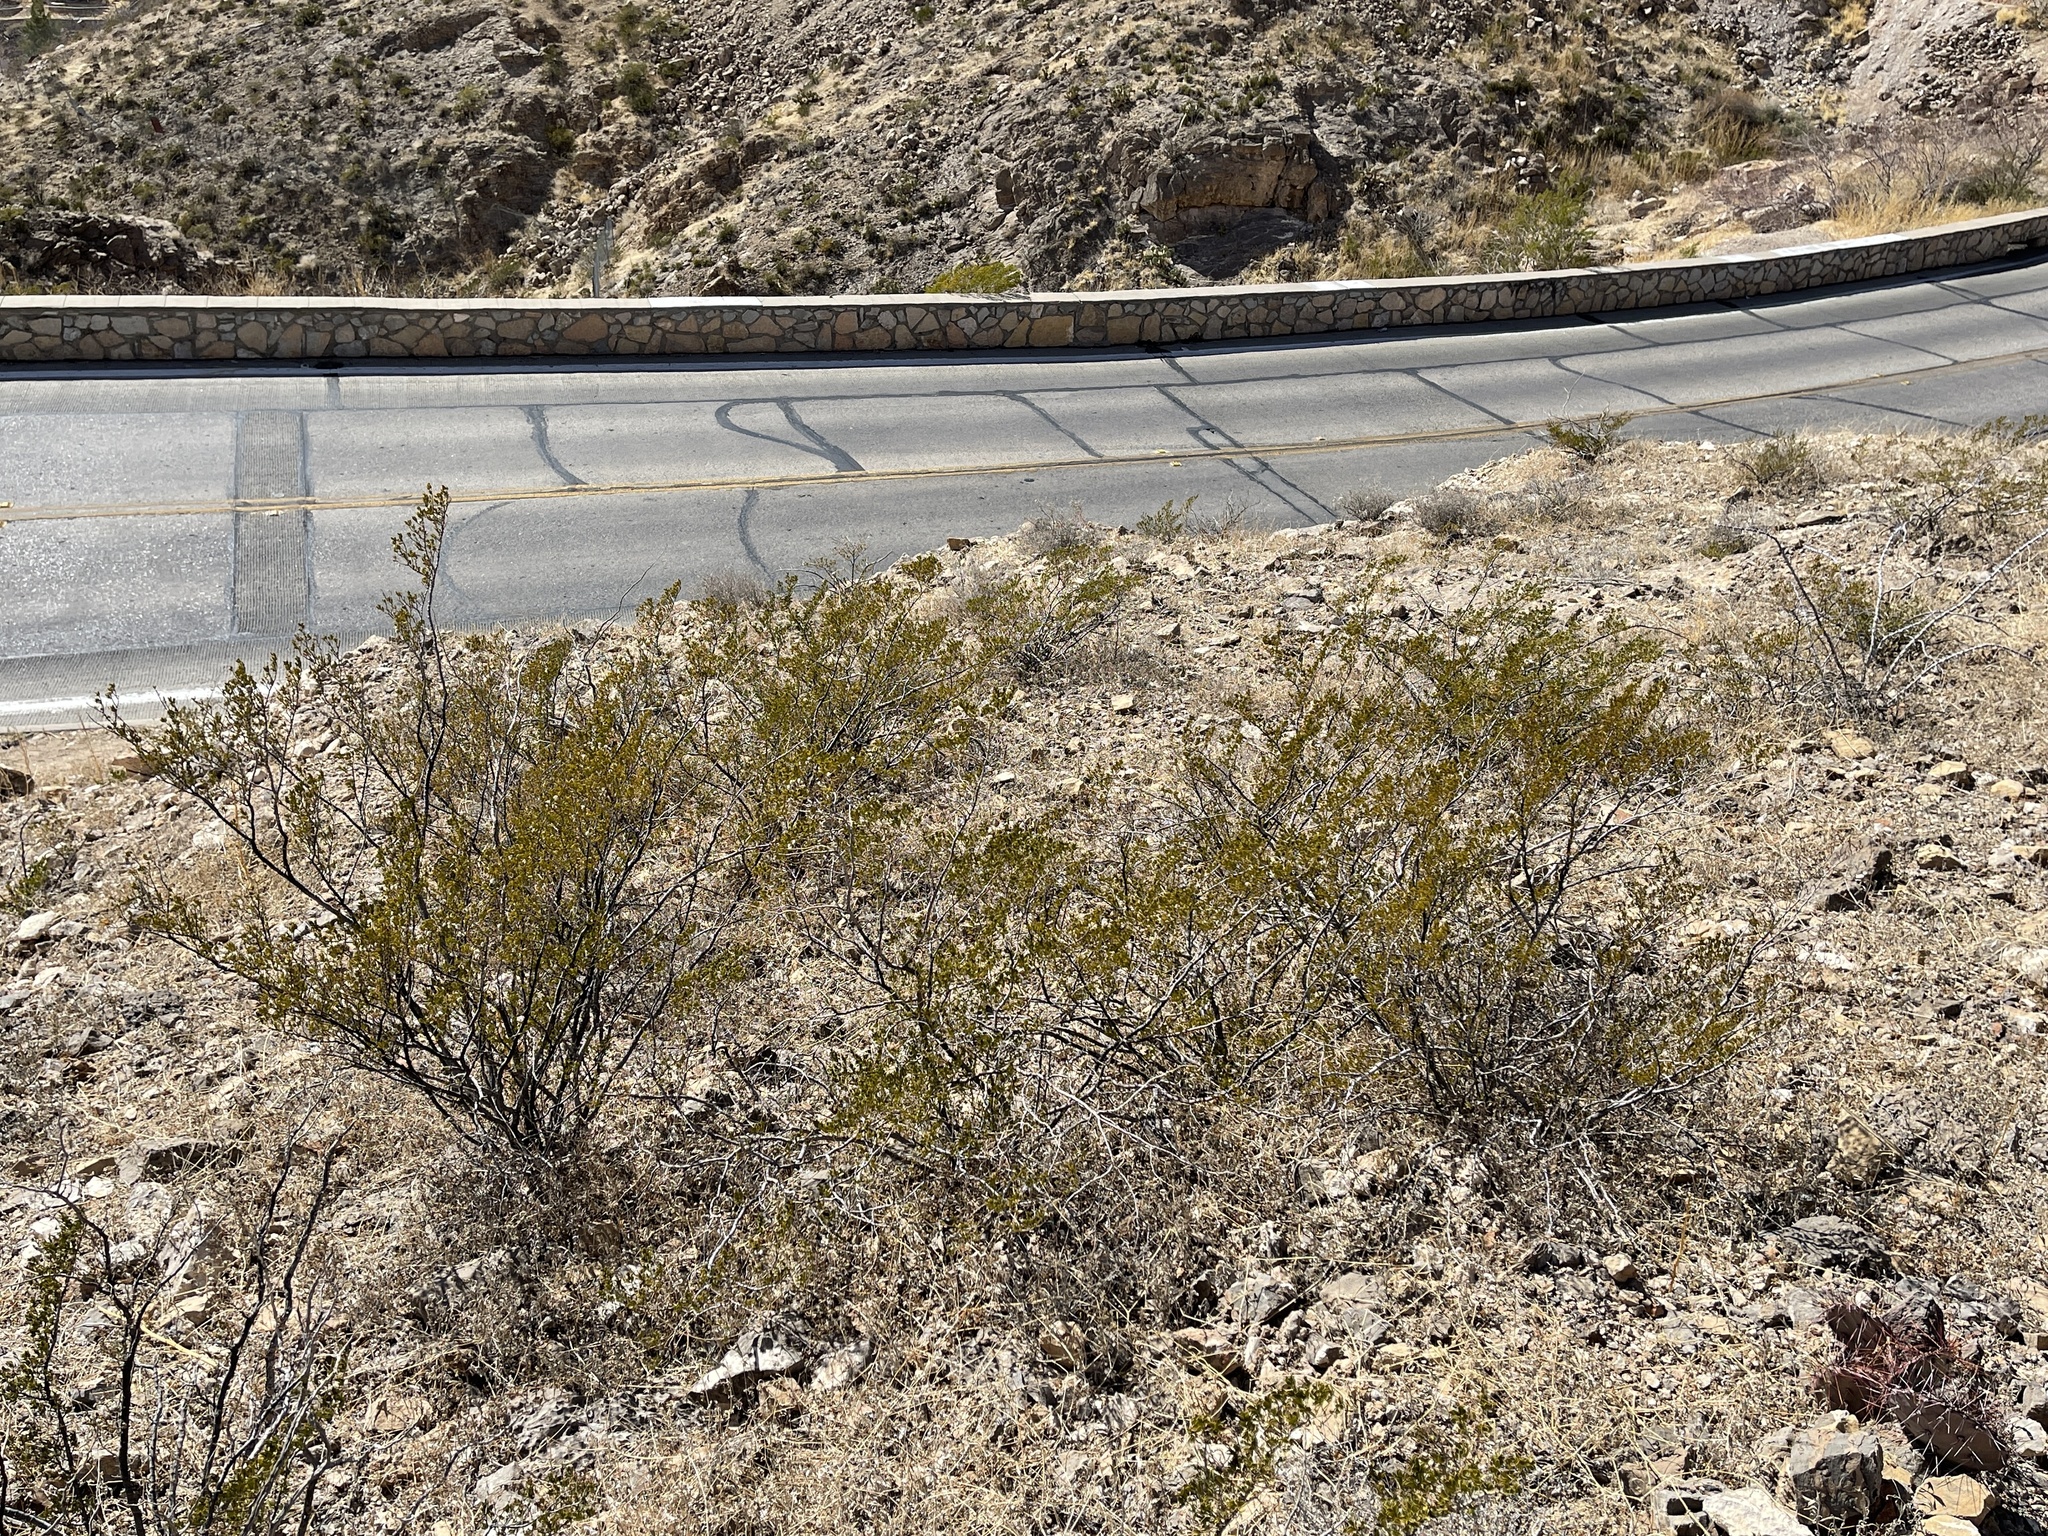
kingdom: Plantae
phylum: Tracheophyta
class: Magnoliopsida
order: Zygophyllales
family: Zygophyllaceae
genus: Larrea
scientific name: Larrea tridentata
